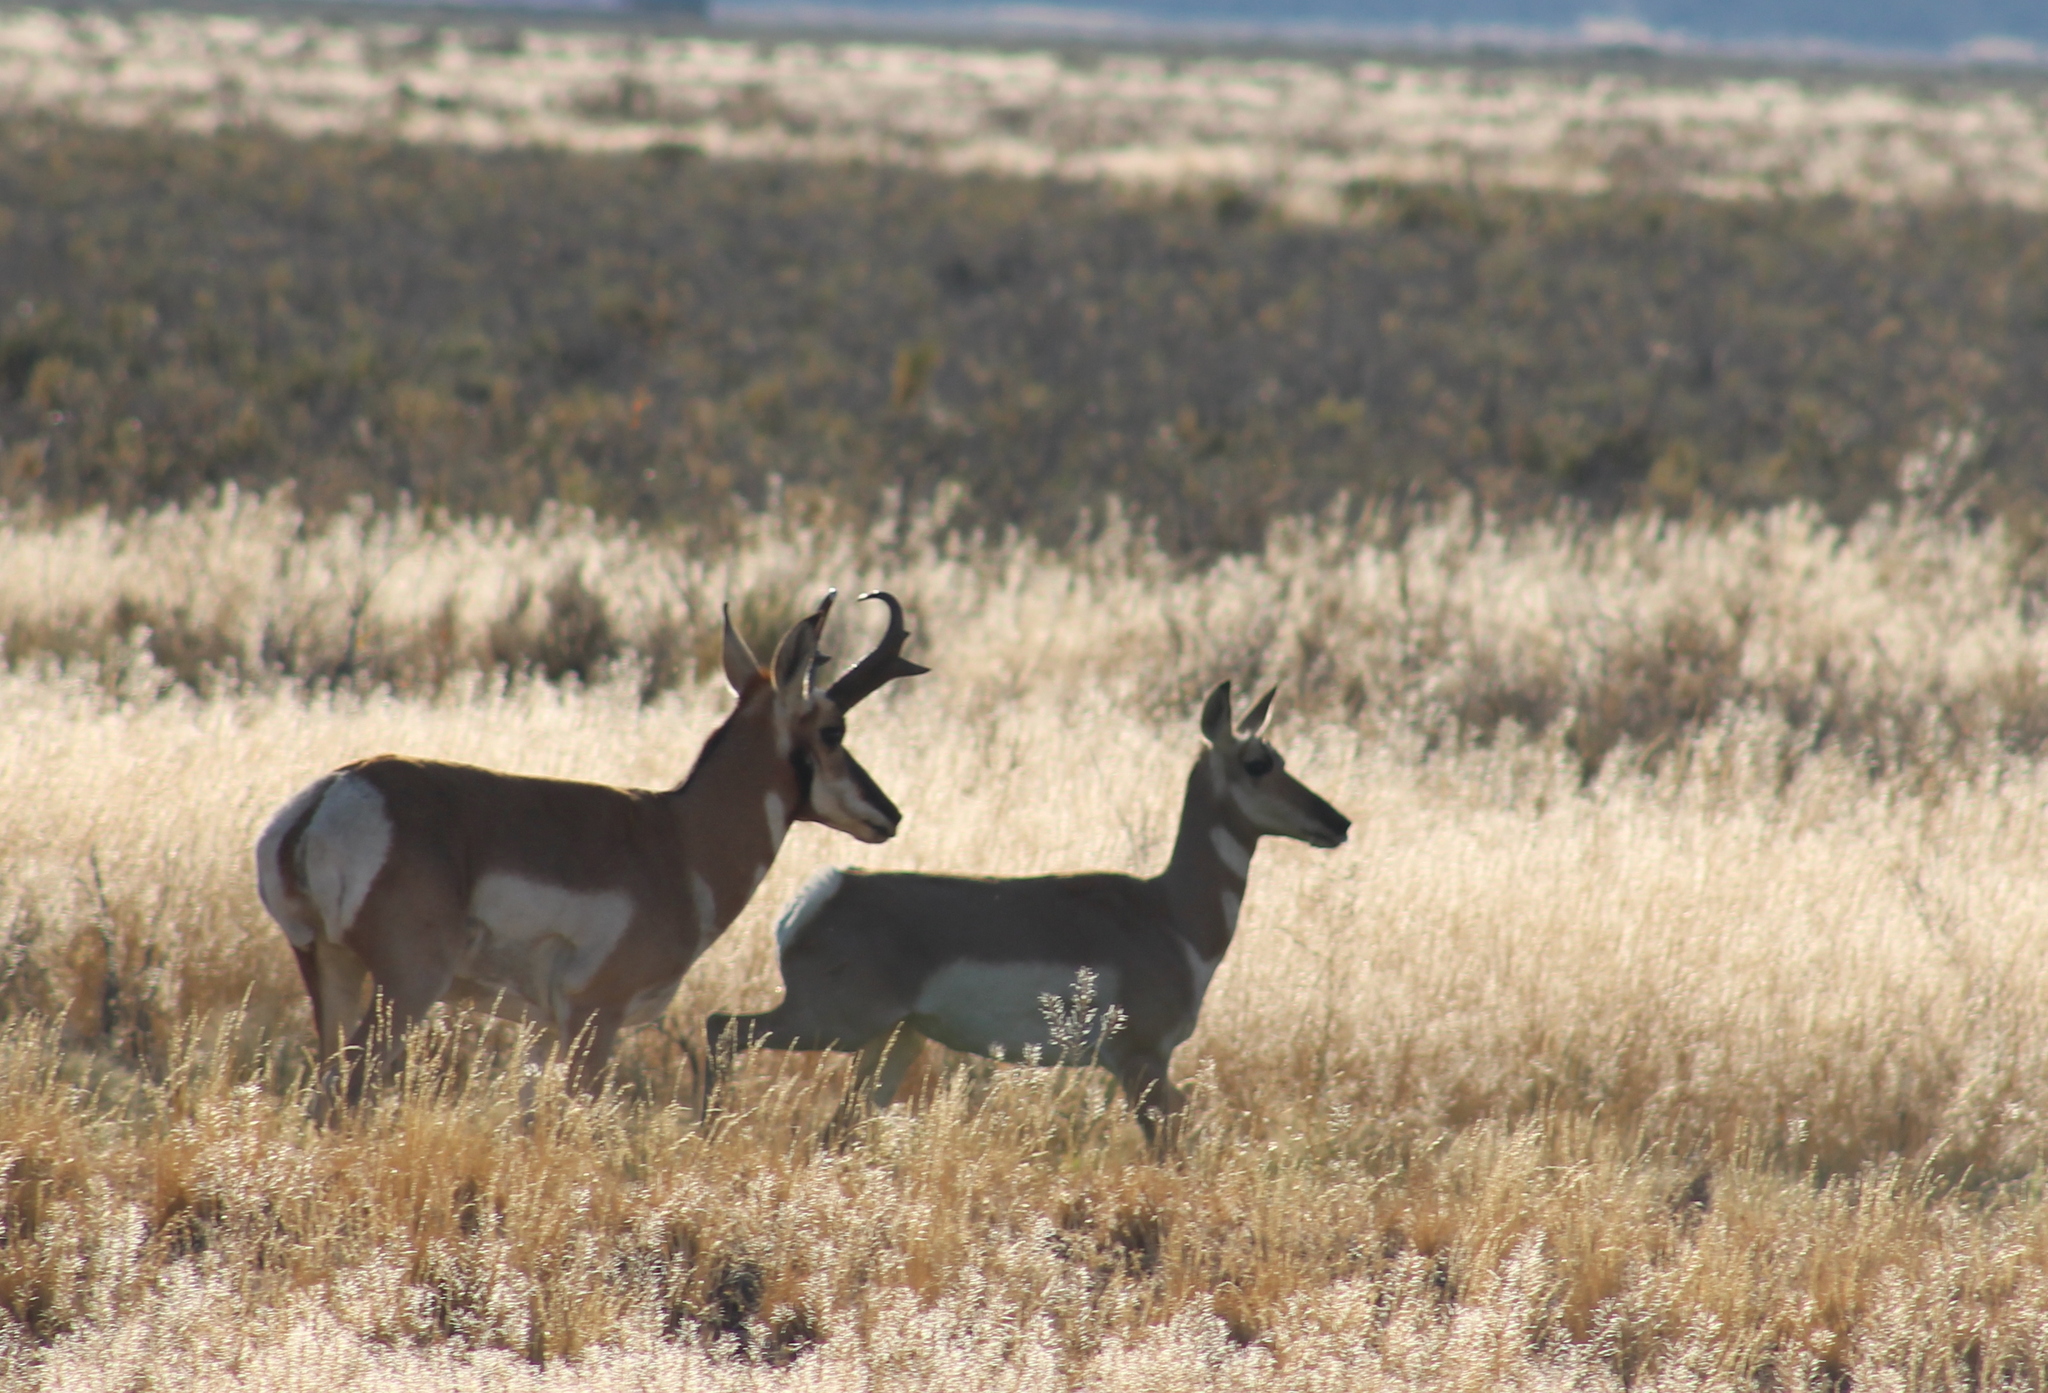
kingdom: Animalia
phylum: Chordata
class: Mammalia
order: Artiodactyla
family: Antilocapridae
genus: Antilocapra
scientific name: Antilocapra americana
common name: Pronghorn
